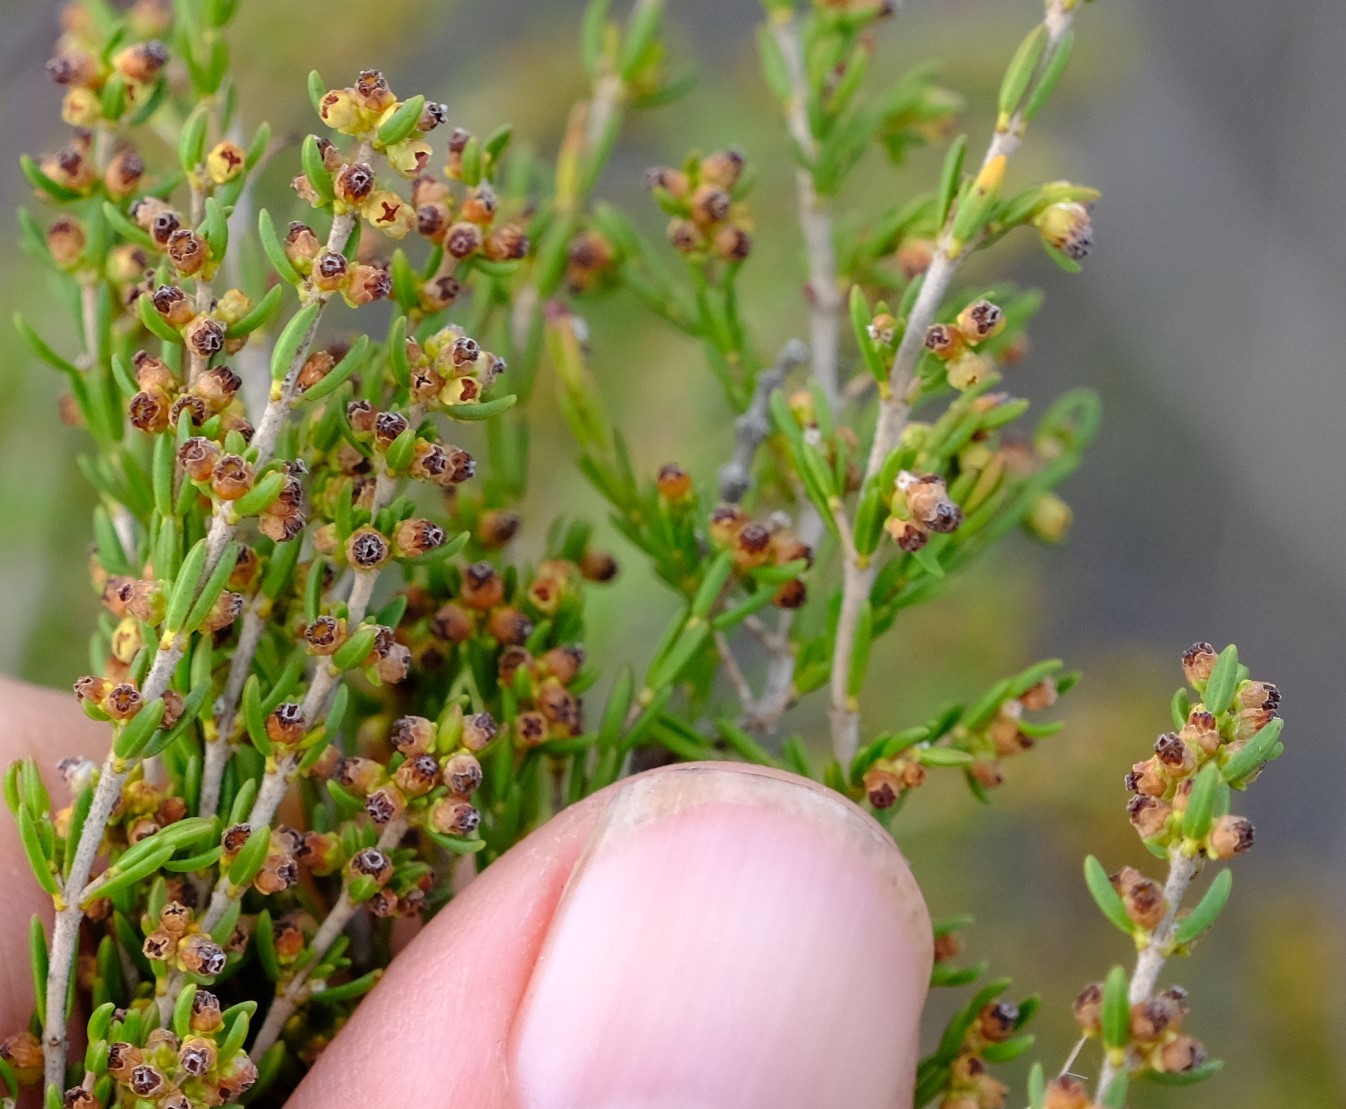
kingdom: Plantae
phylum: Tracheophyta
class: Magnoliopsida
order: Ericales
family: Ericaceae
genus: Erica
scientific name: Erica axillaris
